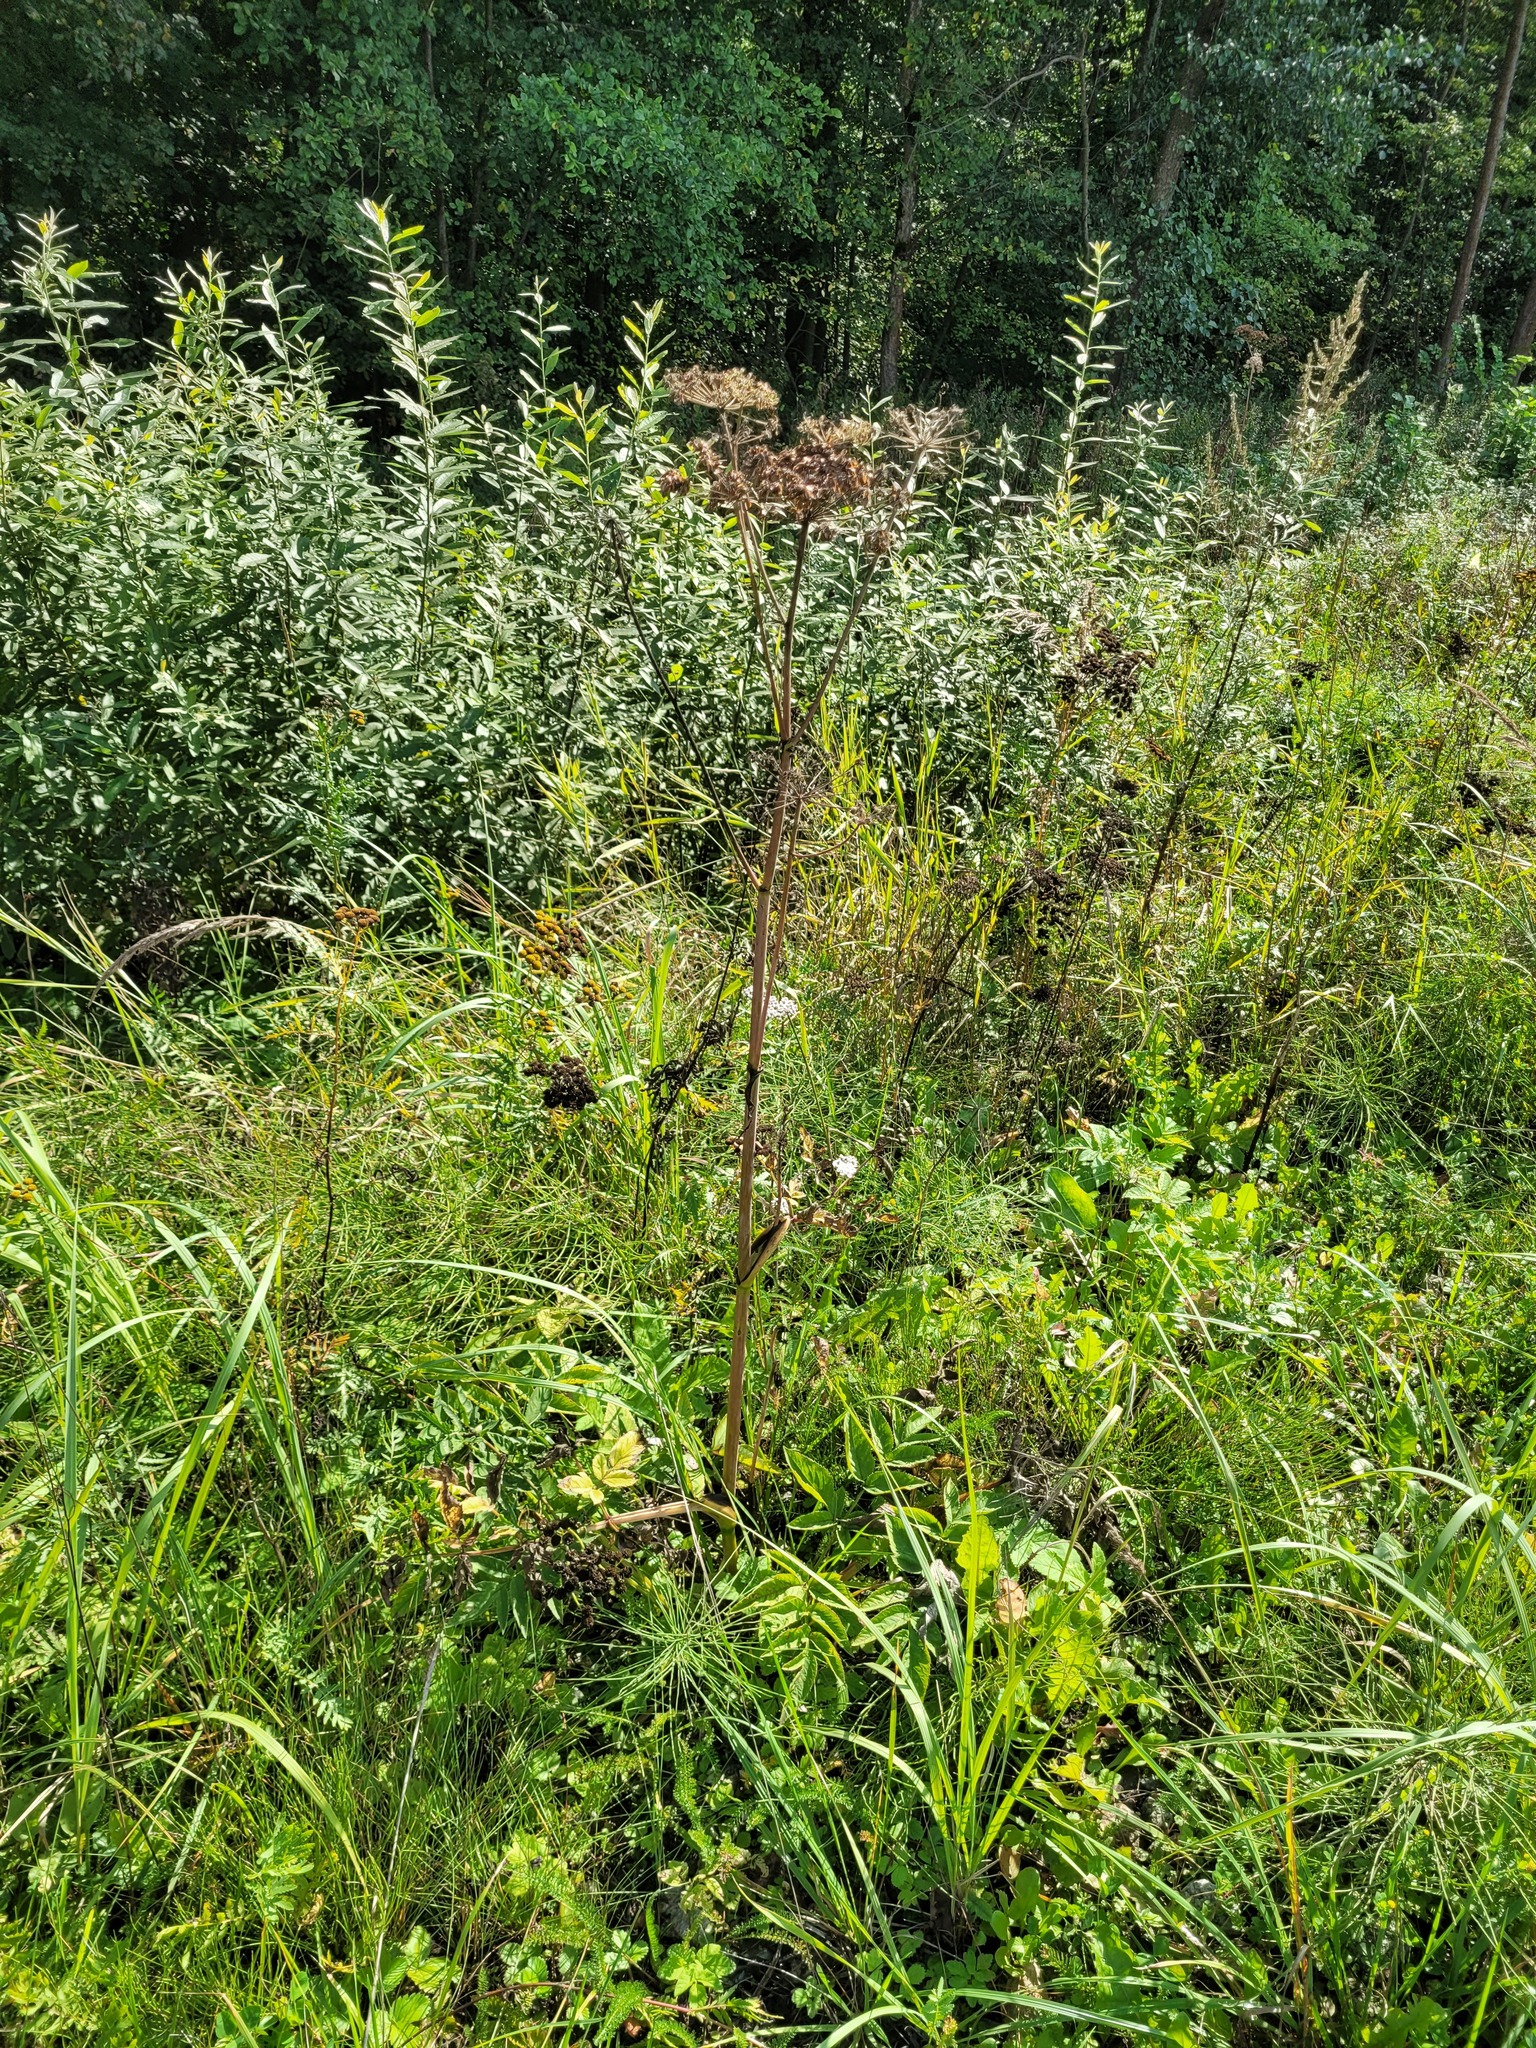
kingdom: Plantae
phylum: Tracheophyta
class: Magnoliopsida
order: Apiales
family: Apiaceae
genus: Angelica
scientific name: Angelica sylvestris
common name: Wild angelica
